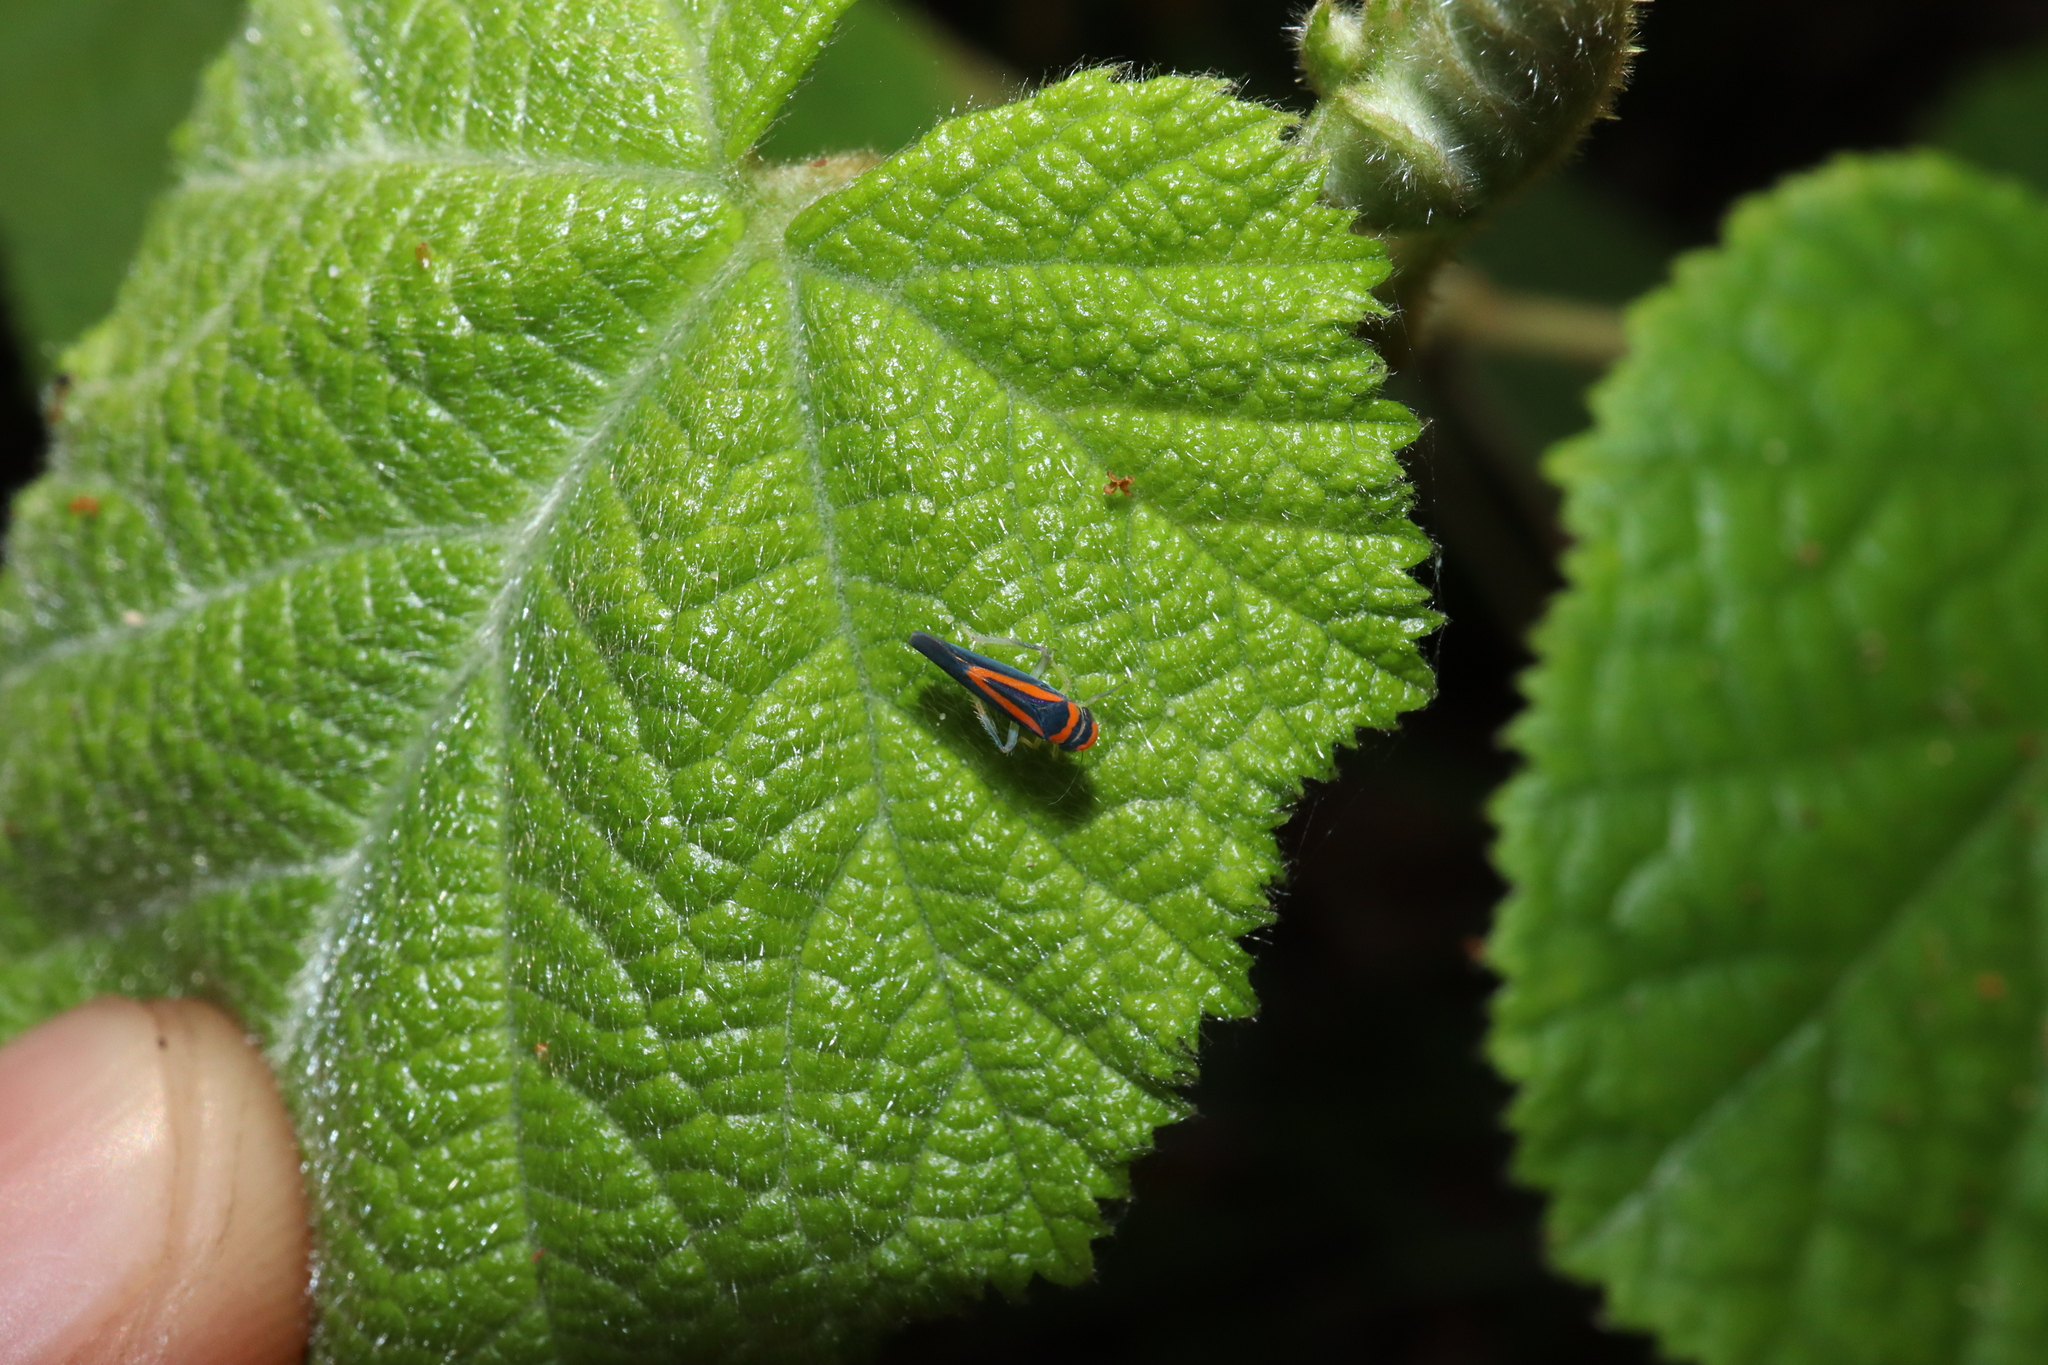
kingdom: Animalia
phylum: Arthropoda
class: Insecta
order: Hemiptera
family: Cicadellidae
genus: Ishidaella
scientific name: Ishidaella anemolua
